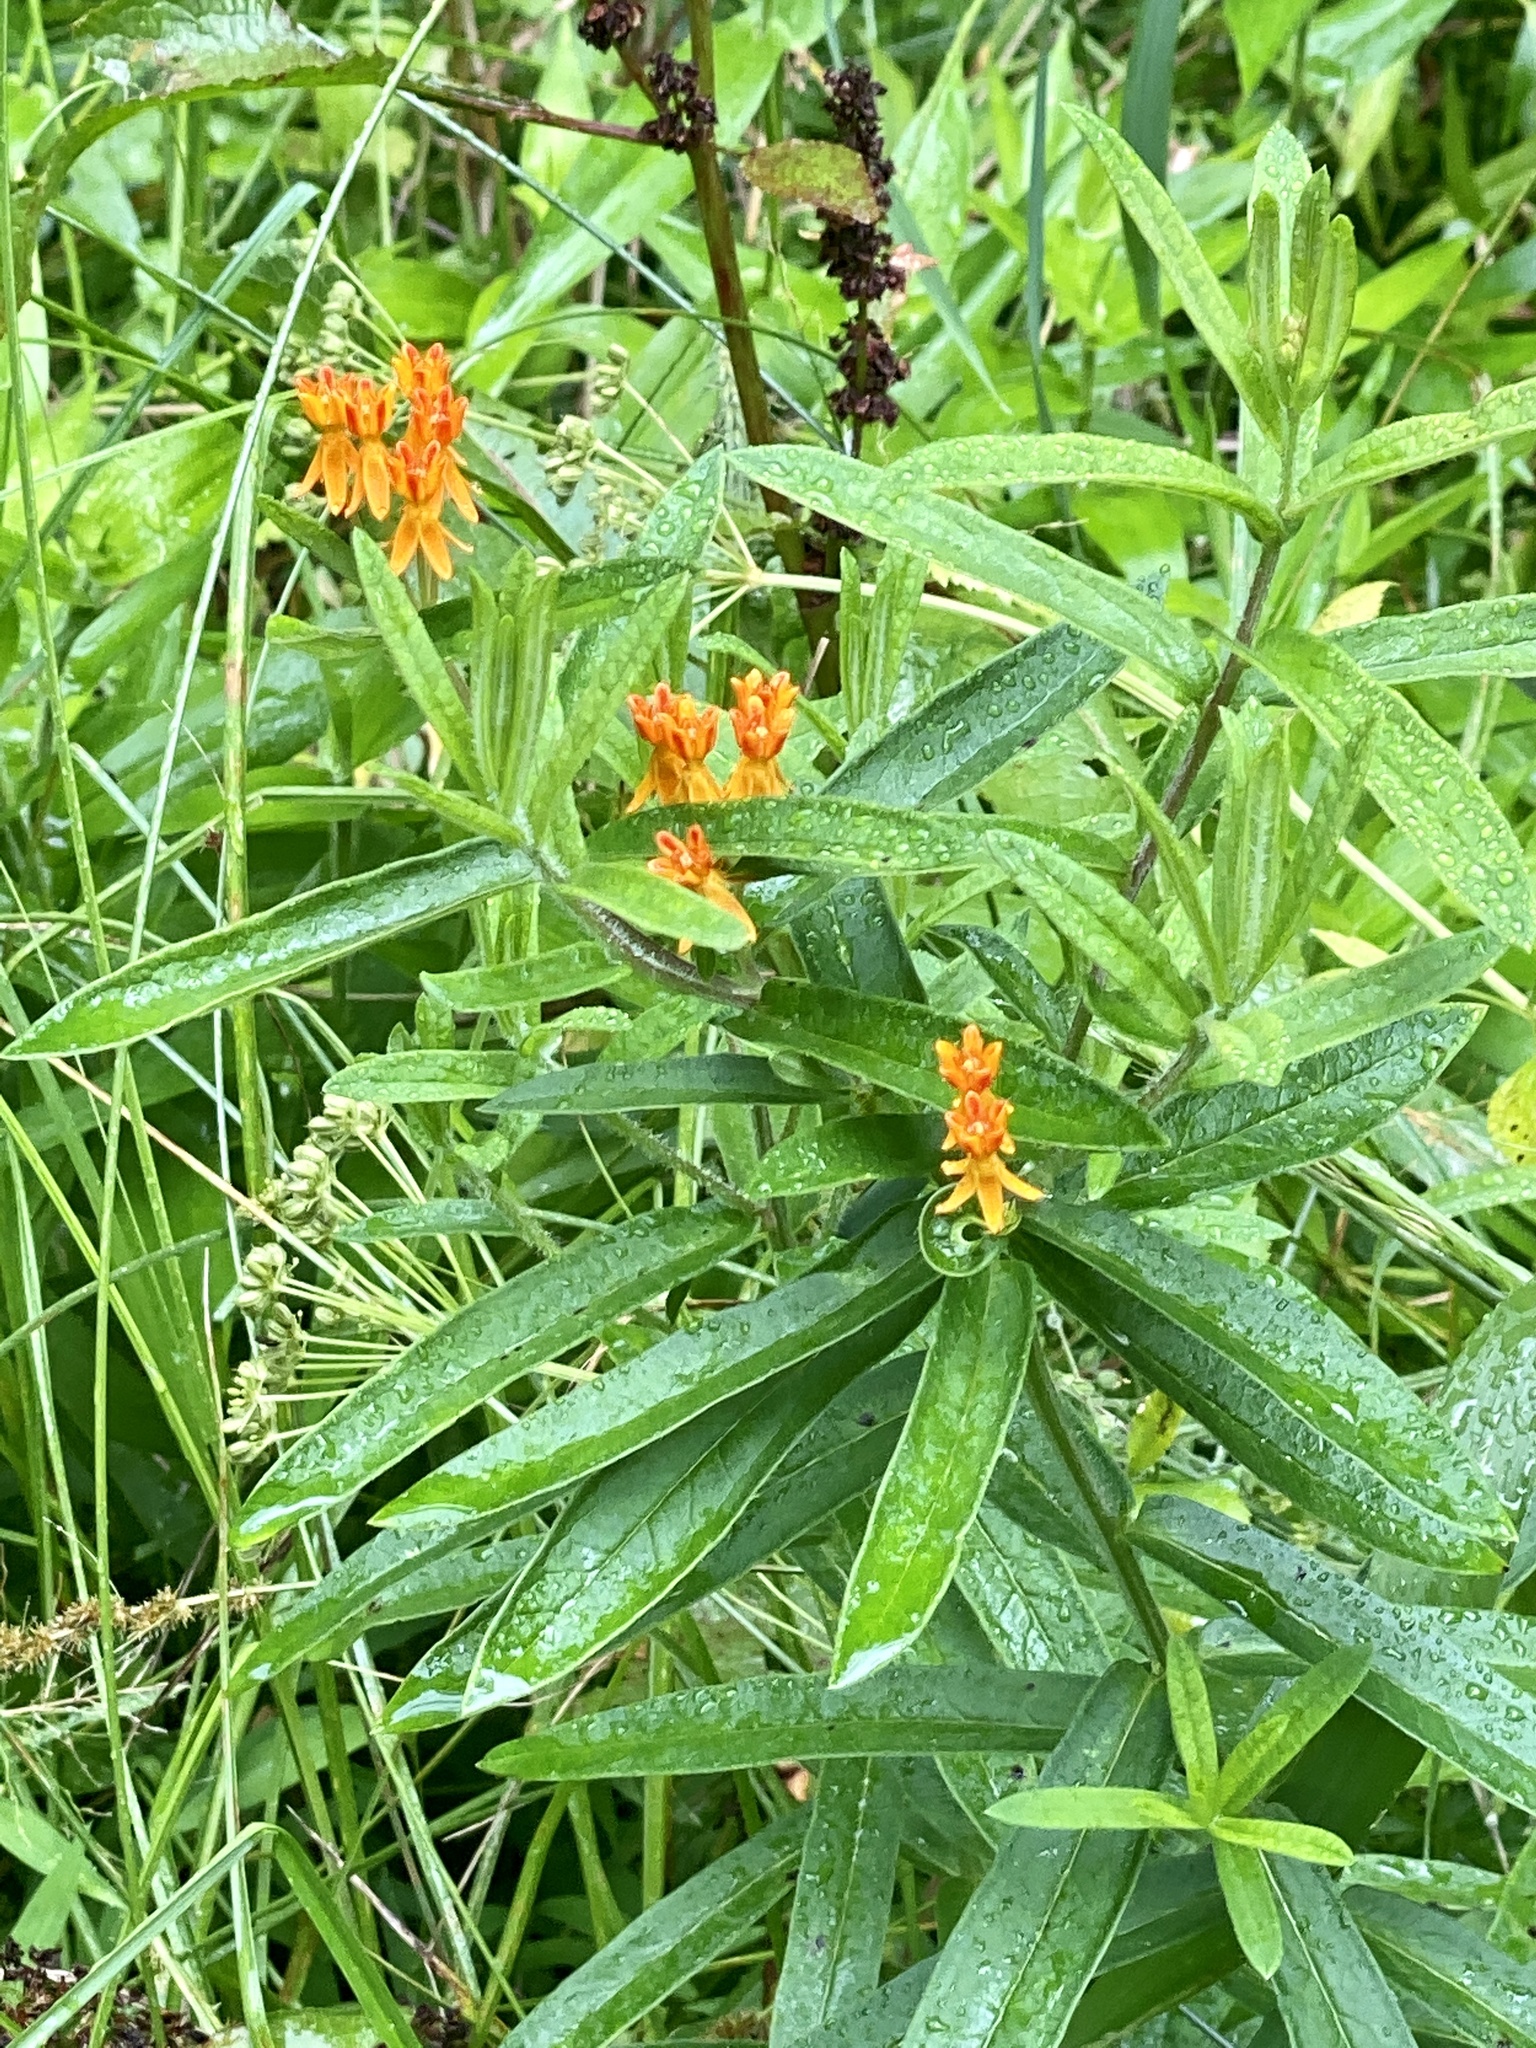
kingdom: Plantae
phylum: Tracheophyta
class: Magnoliopsida
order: Gentianales
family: Apocynaceae
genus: Asclepias
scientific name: Asclepias tuberosa
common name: Butterfly milkweed
